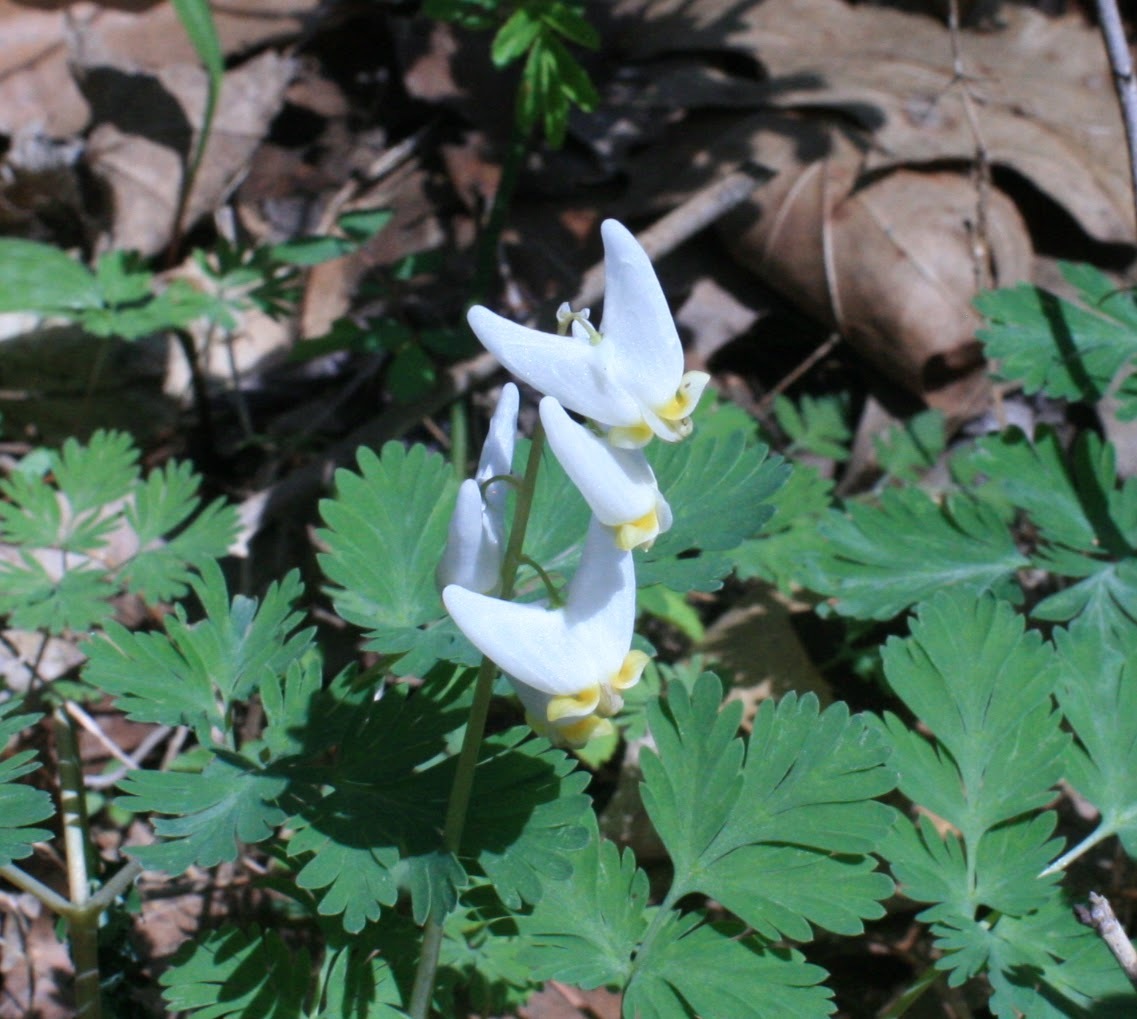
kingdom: Plantae
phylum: Tracheophyta
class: Magnoliopsida
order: Ranunculales
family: Papaveraceae
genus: Dicentra
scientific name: Dicentra cucullaria
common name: Dutchman's breeches
